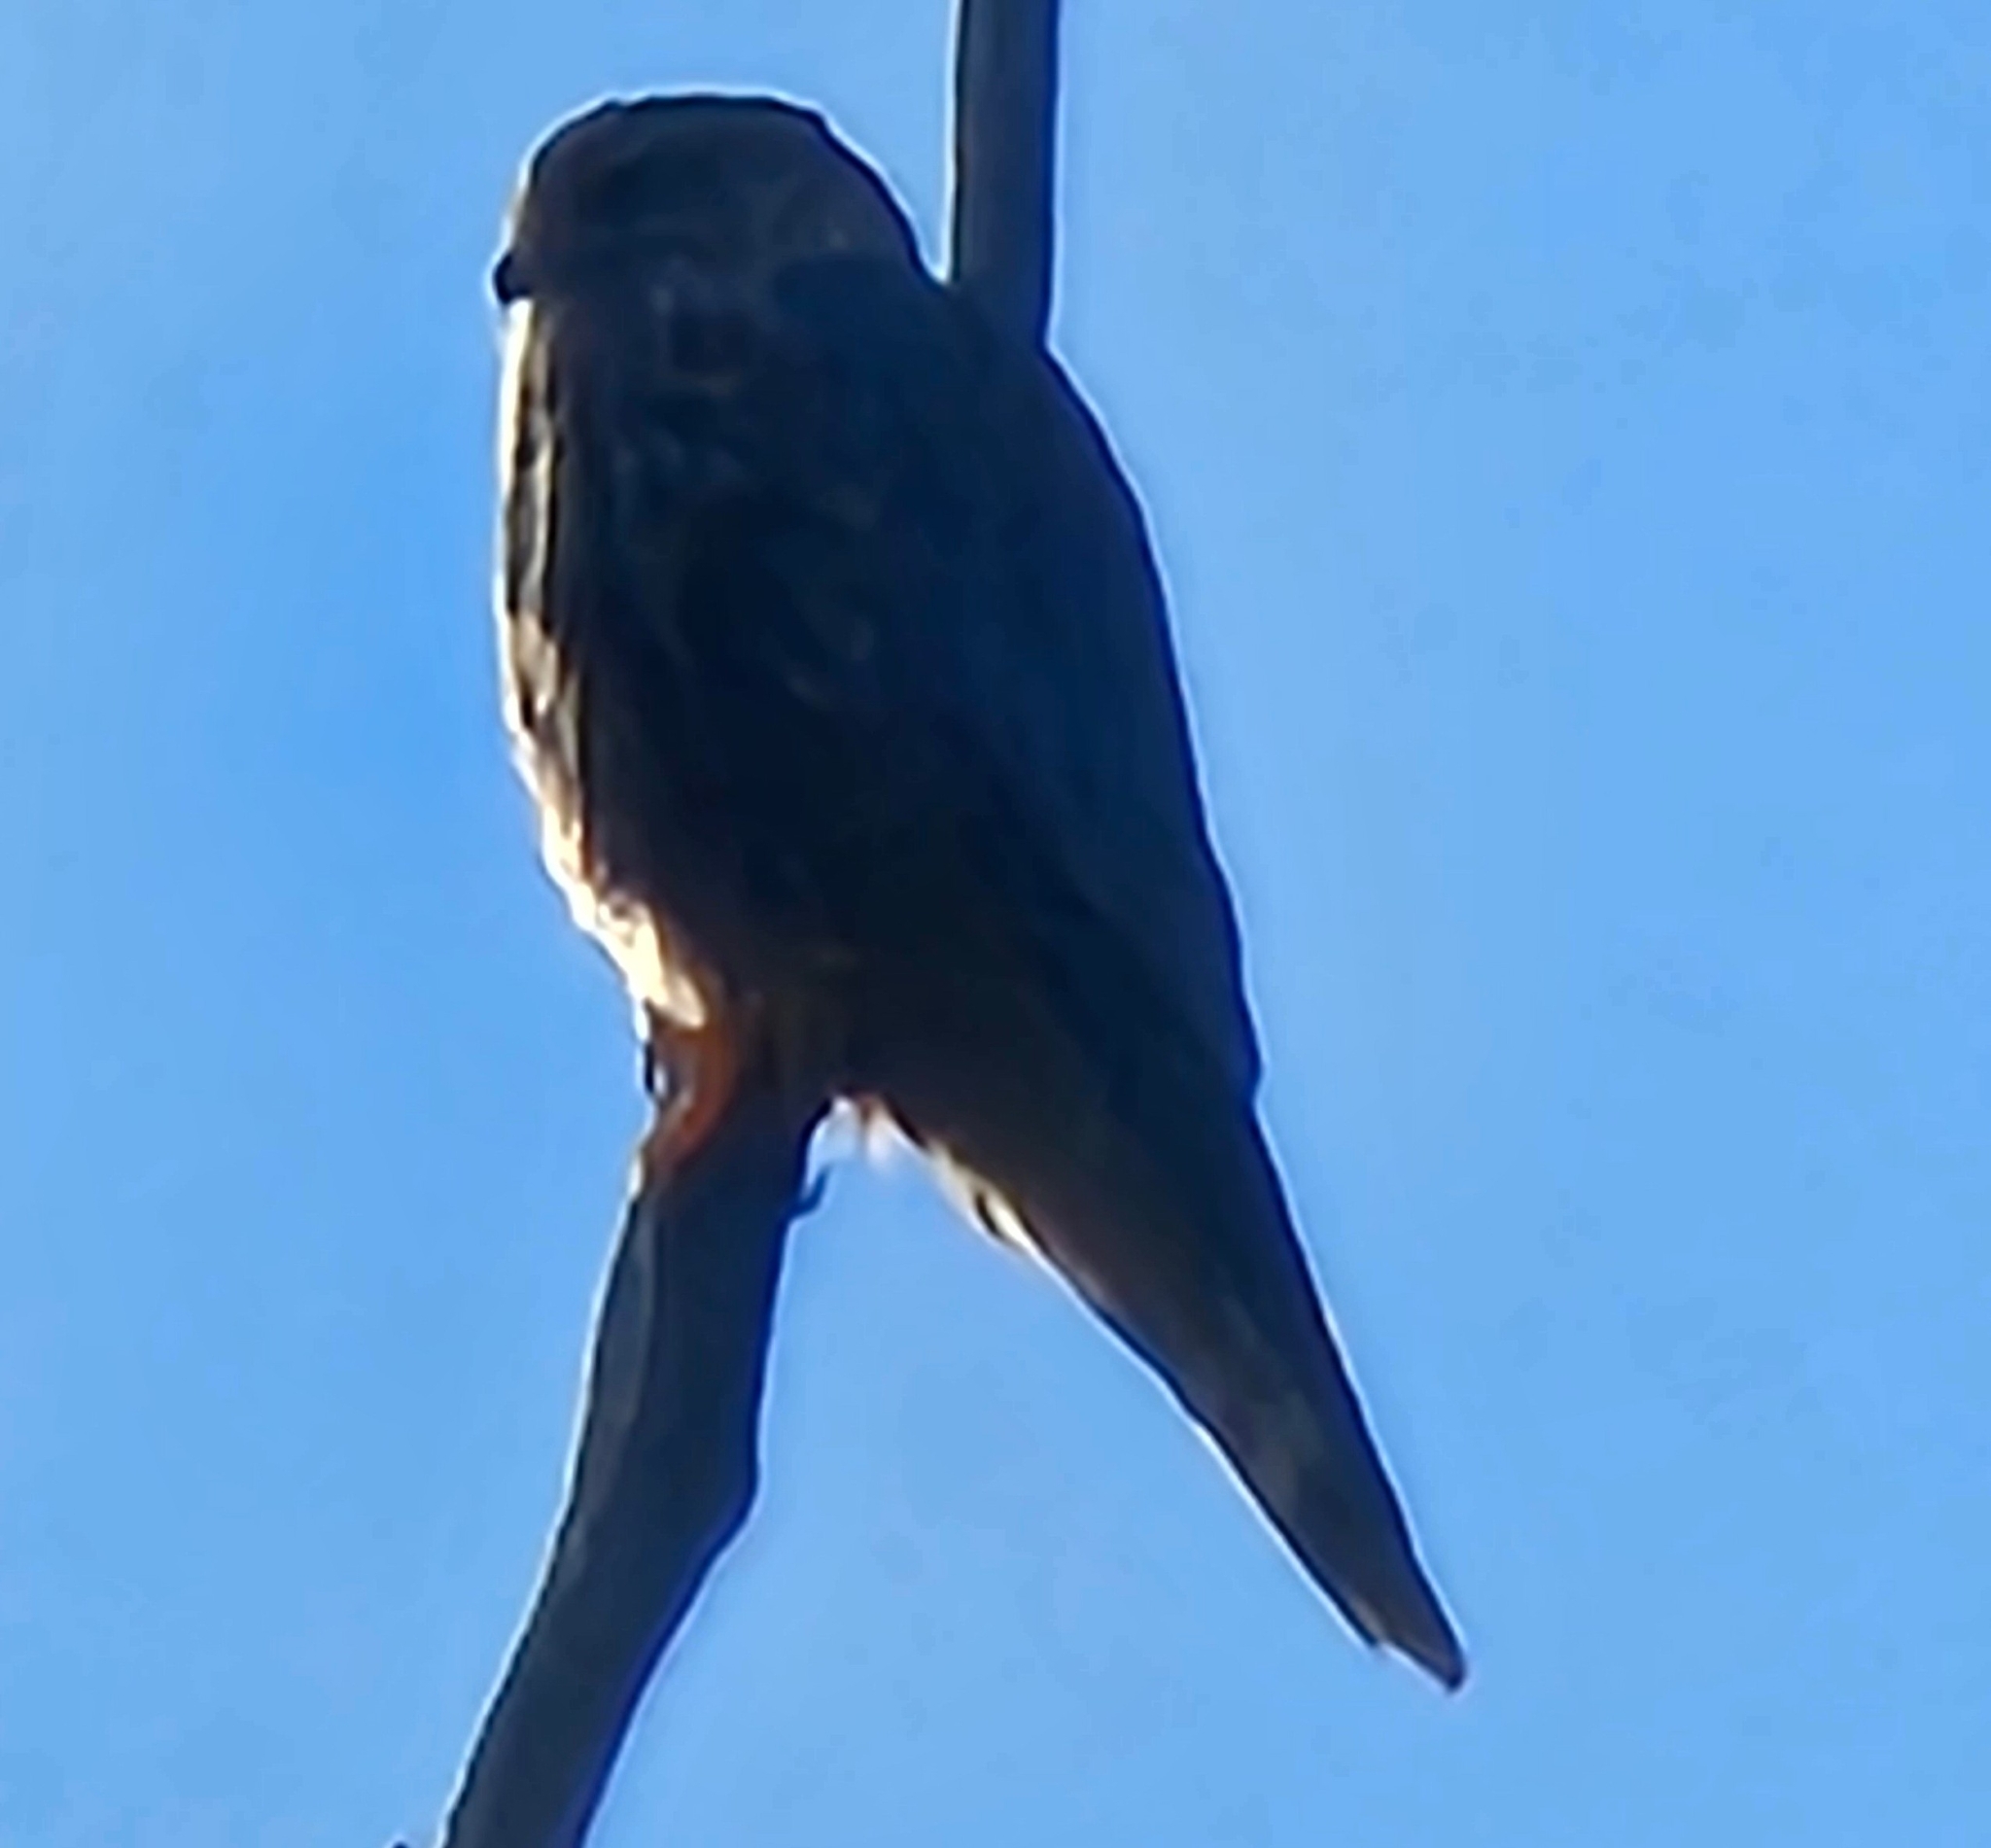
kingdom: Animalia
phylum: Chordata
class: Aves
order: Falconiformes
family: Falconidae
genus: Falco
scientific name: Falco columbarius
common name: Merlin
